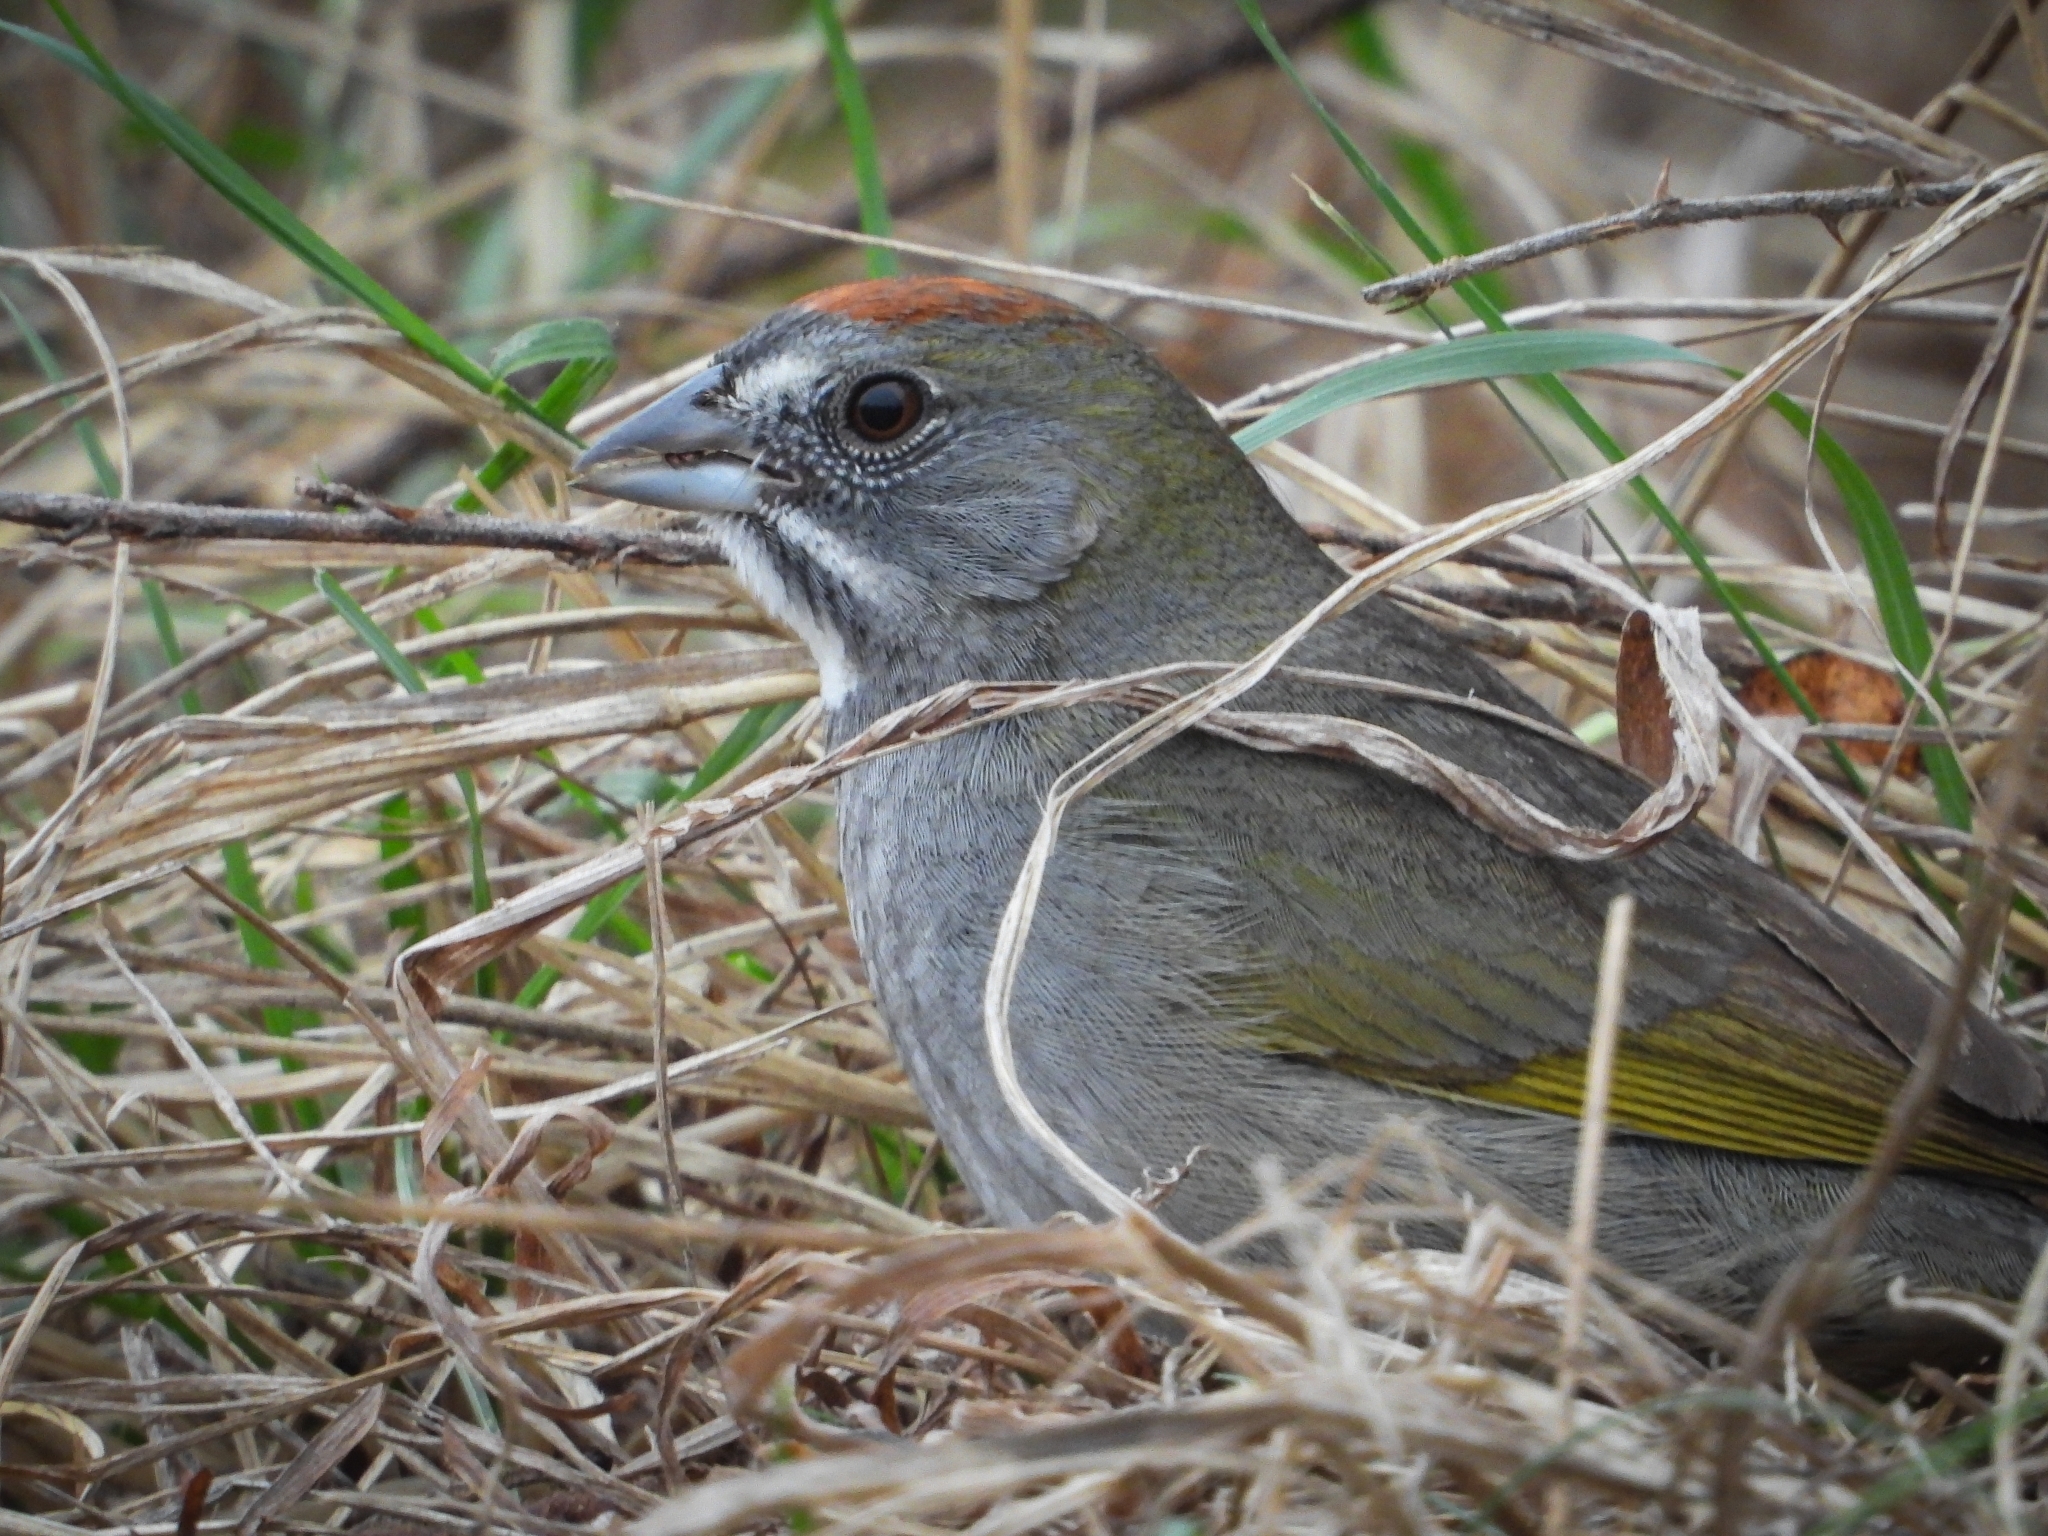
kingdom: Animalia
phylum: Chordata
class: Aves
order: Passeriformes
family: Passerellidae
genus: Pipilo
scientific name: Pipilo chlorurus
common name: Green-tailed towhee
